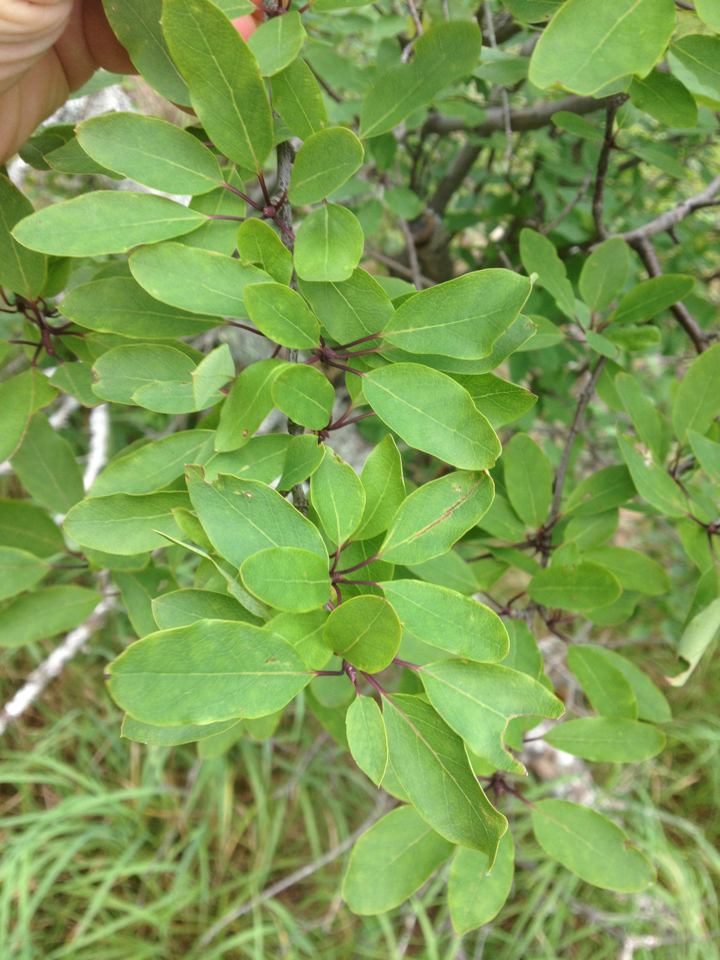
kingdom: Plantae
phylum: Tracheophyta
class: Magnoliopsida
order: Aquifoliales
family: Aquifoliaceae
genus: Ilex
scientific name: Ilex mucronata
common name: Catberry
